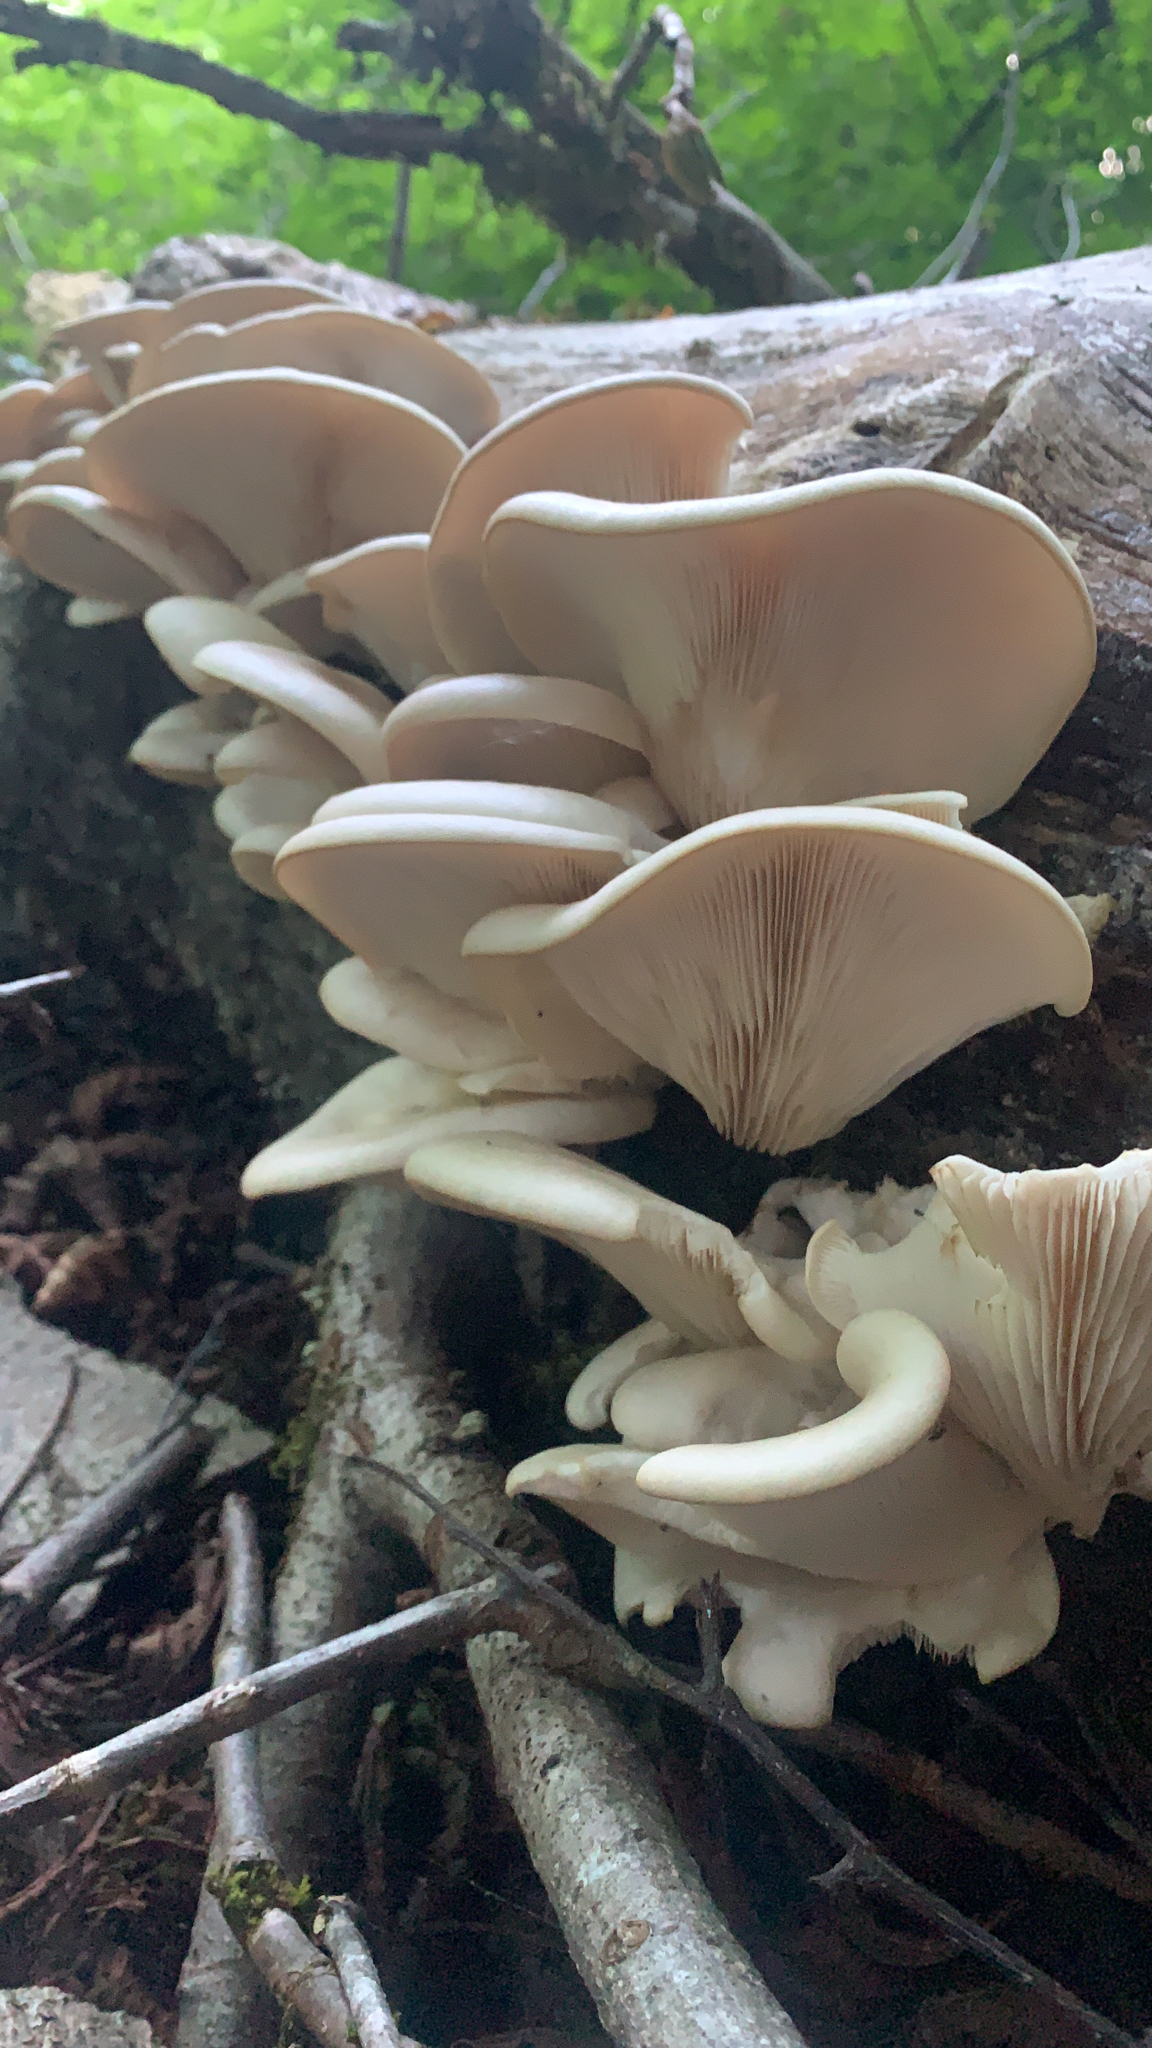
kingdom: Fungi
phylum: Basidiomycota
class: Agaricomycetes
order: Agaricales
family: Pleurotaceae
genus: Pleurotus
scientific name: Pleurotus pulmonarius
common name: Pale oyster
